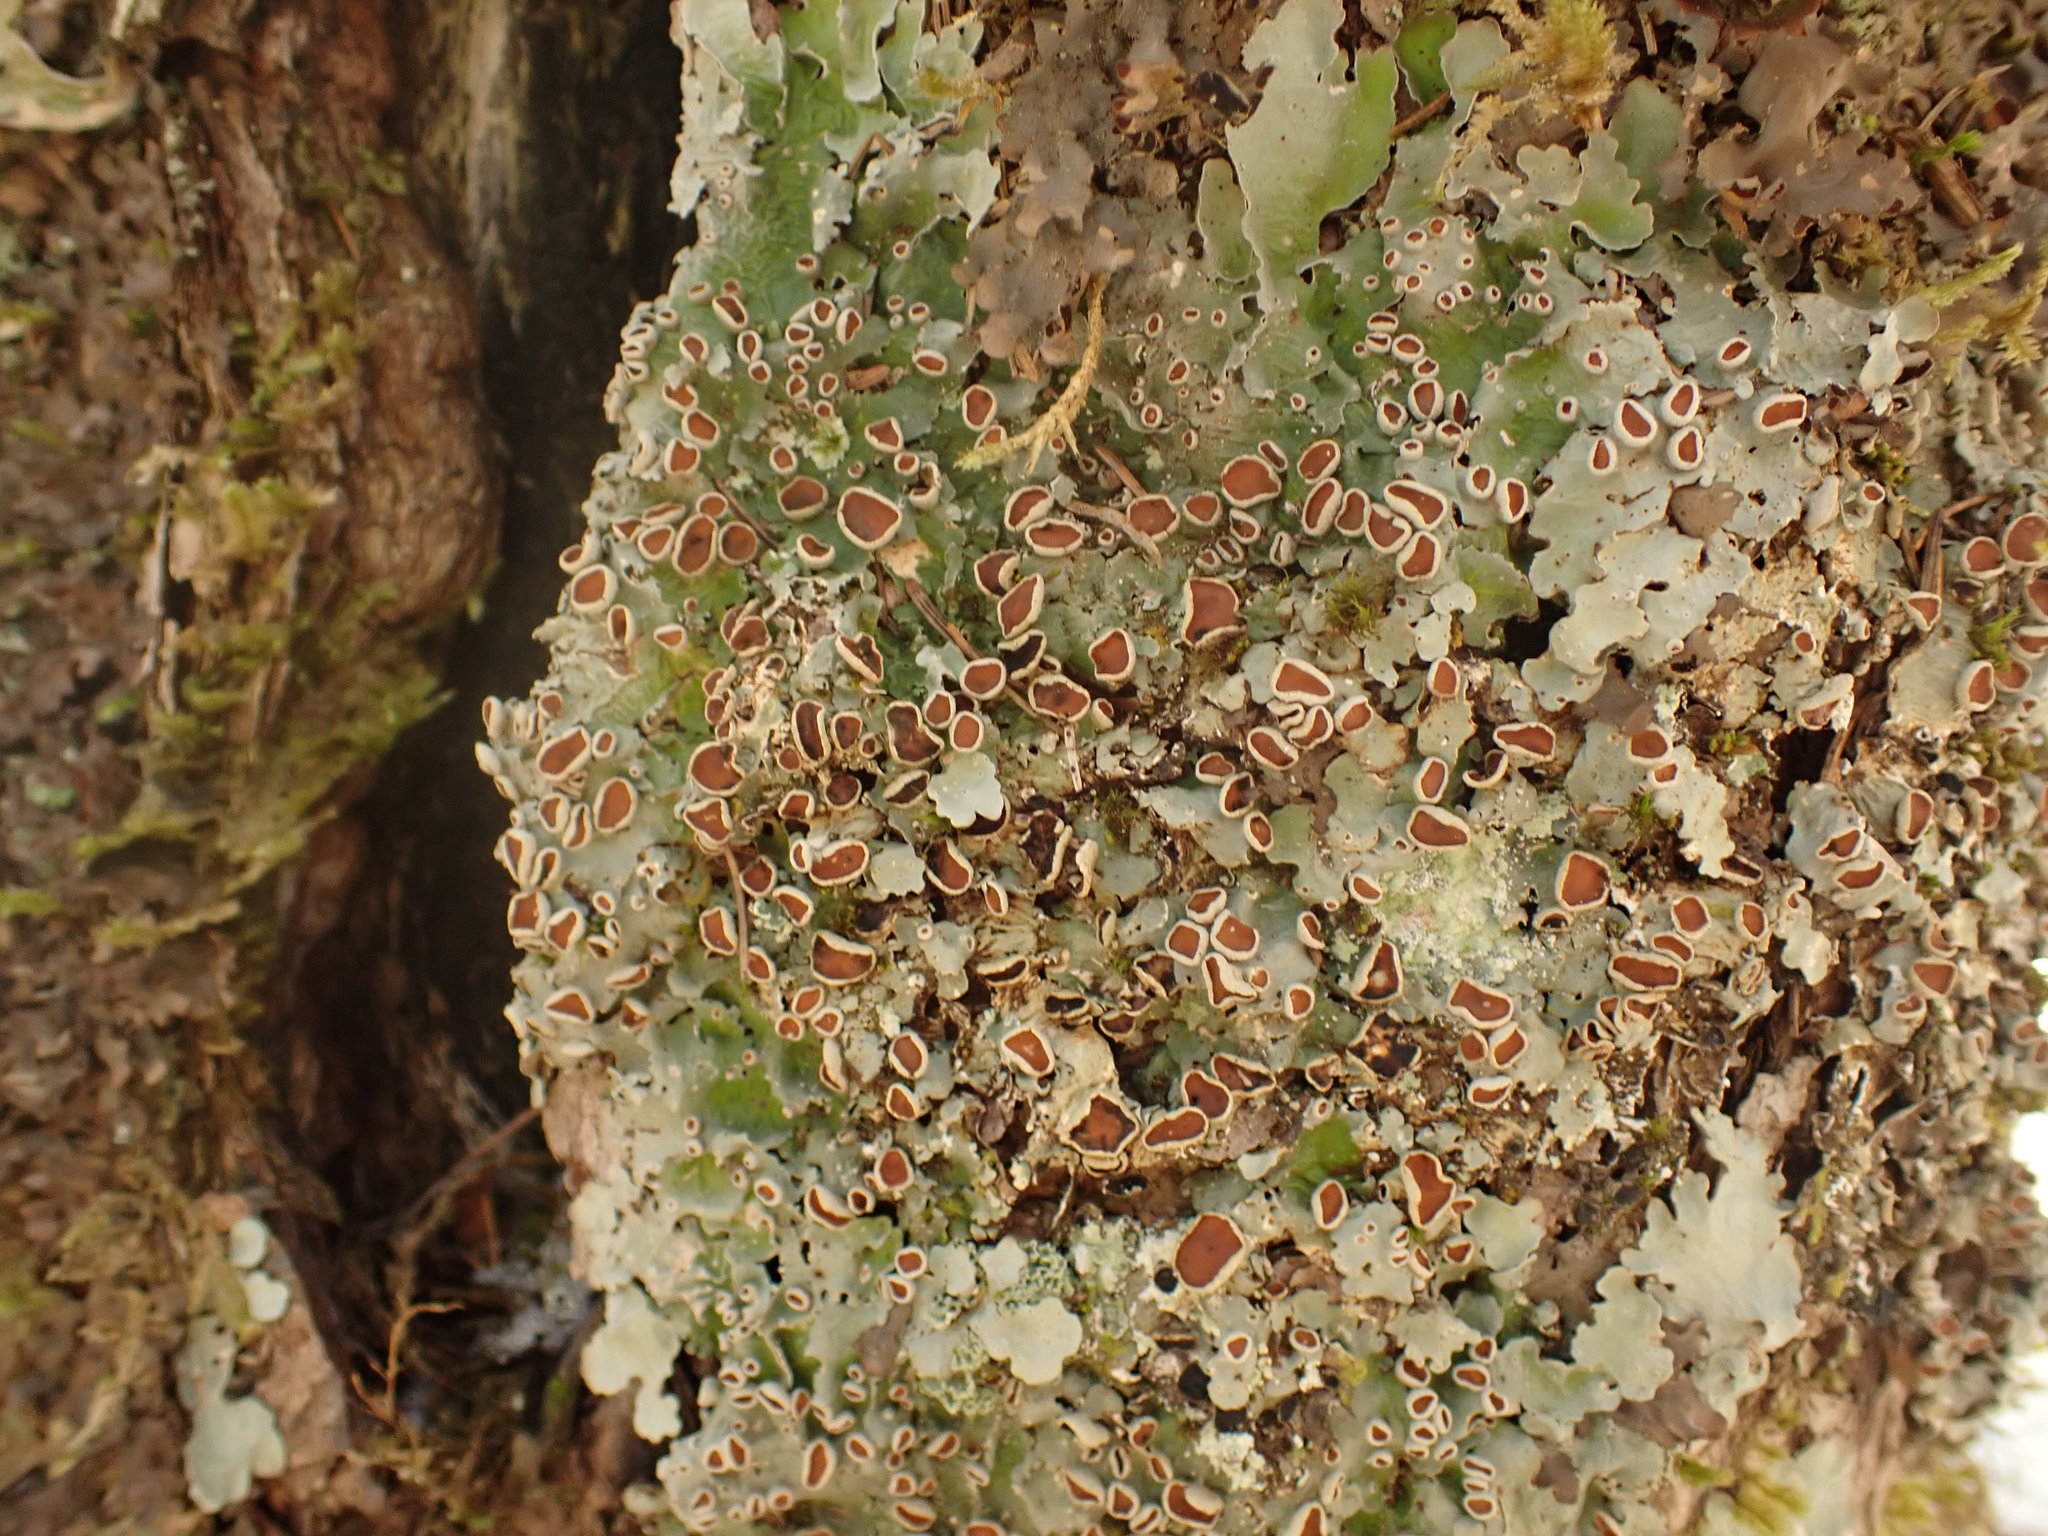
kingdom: Fungi
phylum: Ascomycota
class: Lecanoromycetes
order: Peltigerales
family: Lobariaceae
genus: Ricasolia
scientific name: Ricasolia quercizans
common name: Smooth lungwort
